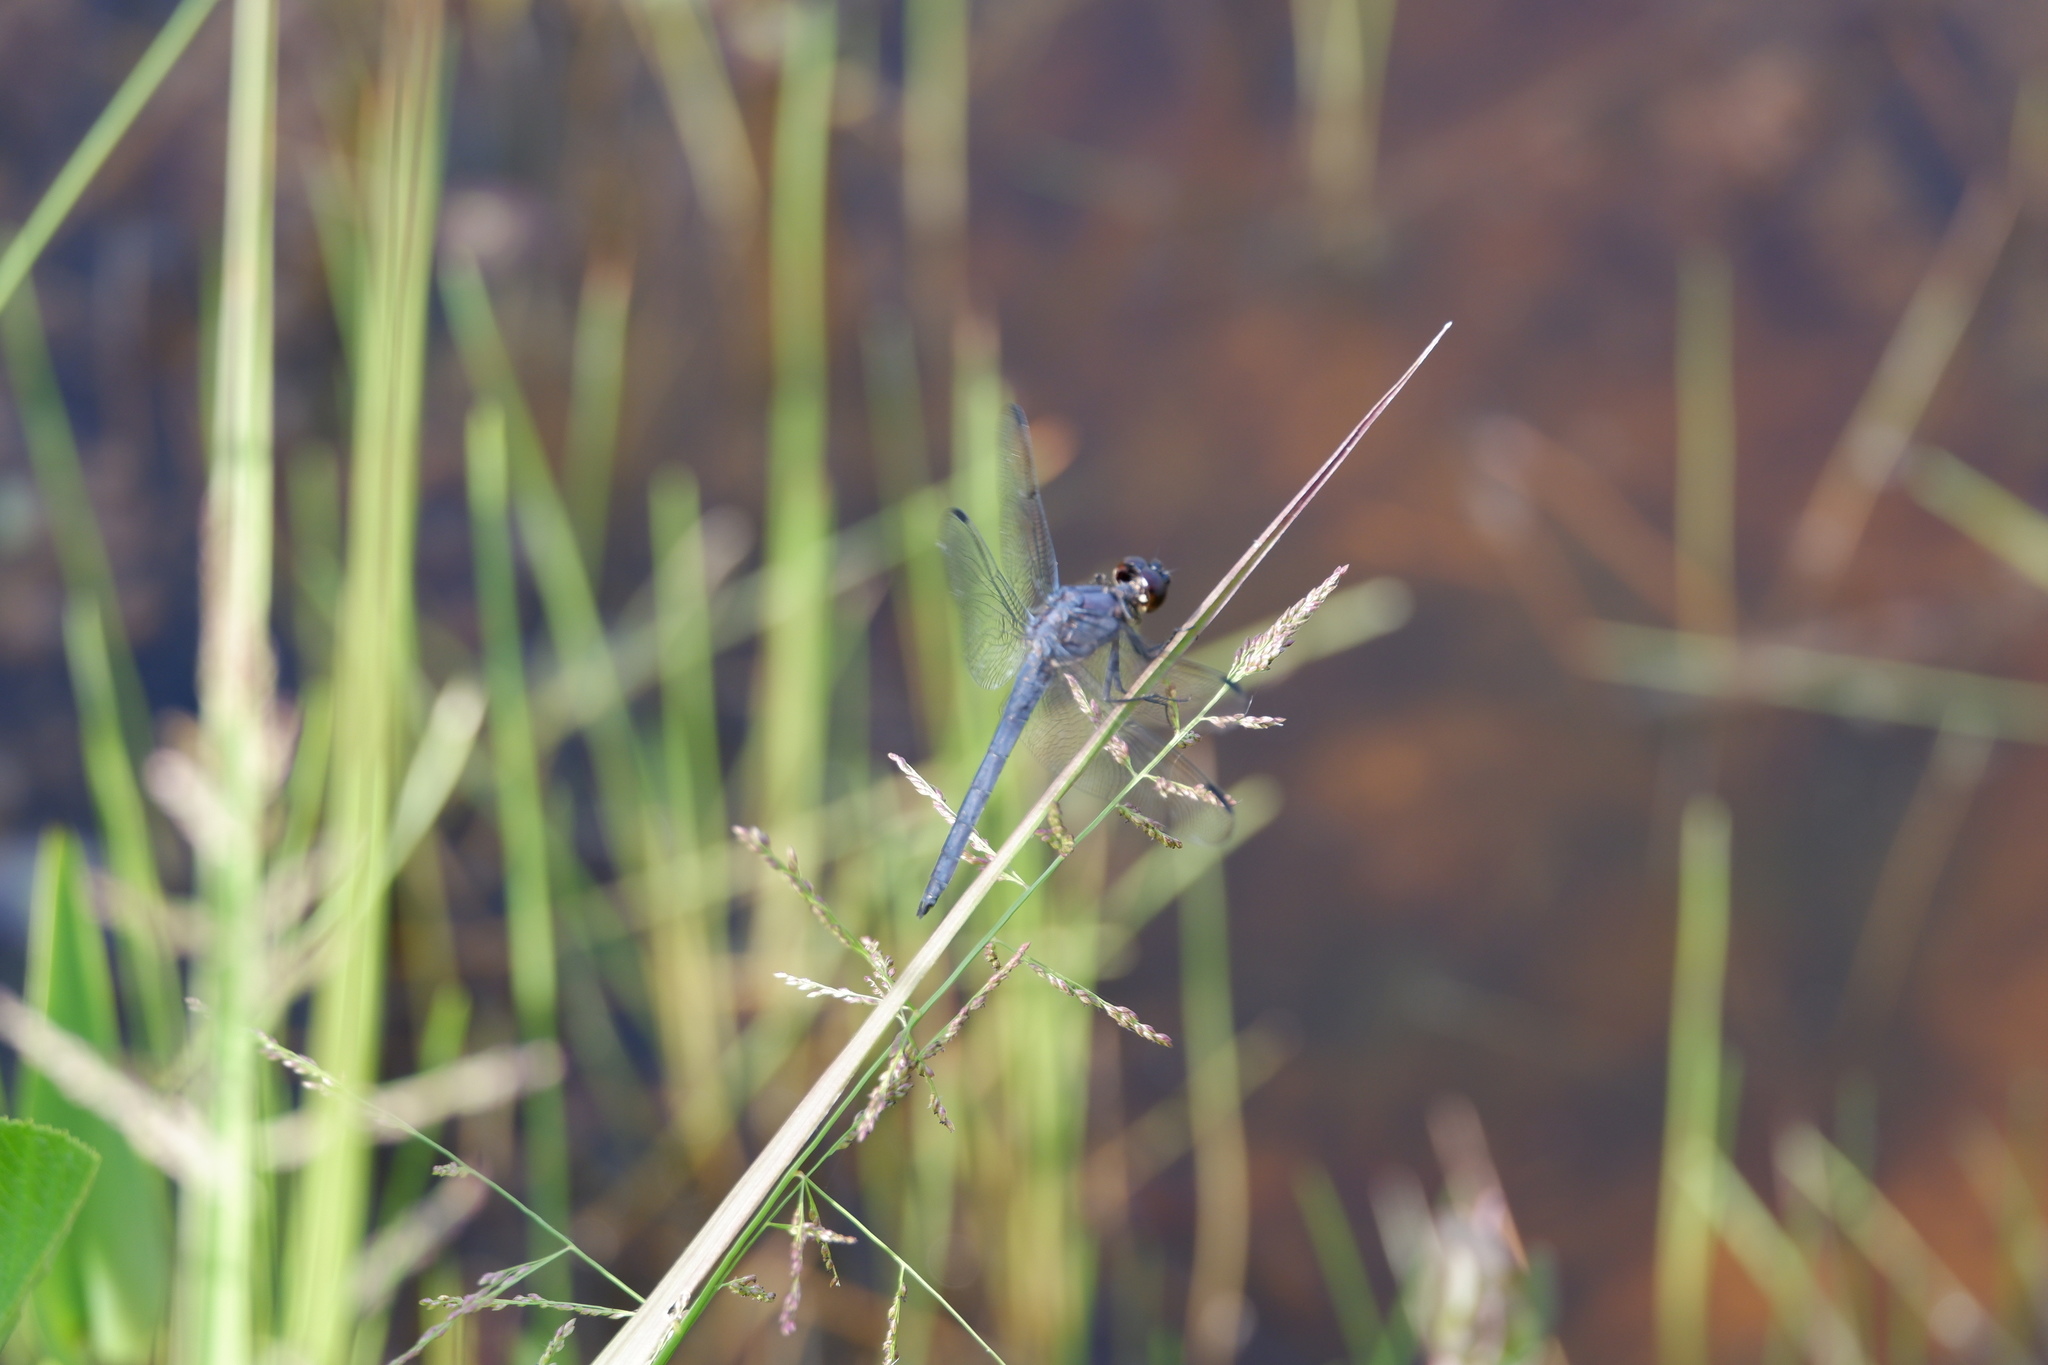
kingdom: Animalia
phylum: Arthropoda
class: Insecta
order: Odonata
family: Libellulidae
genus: Libellula
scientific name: Libellula incesta
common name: Slaty skimmer
